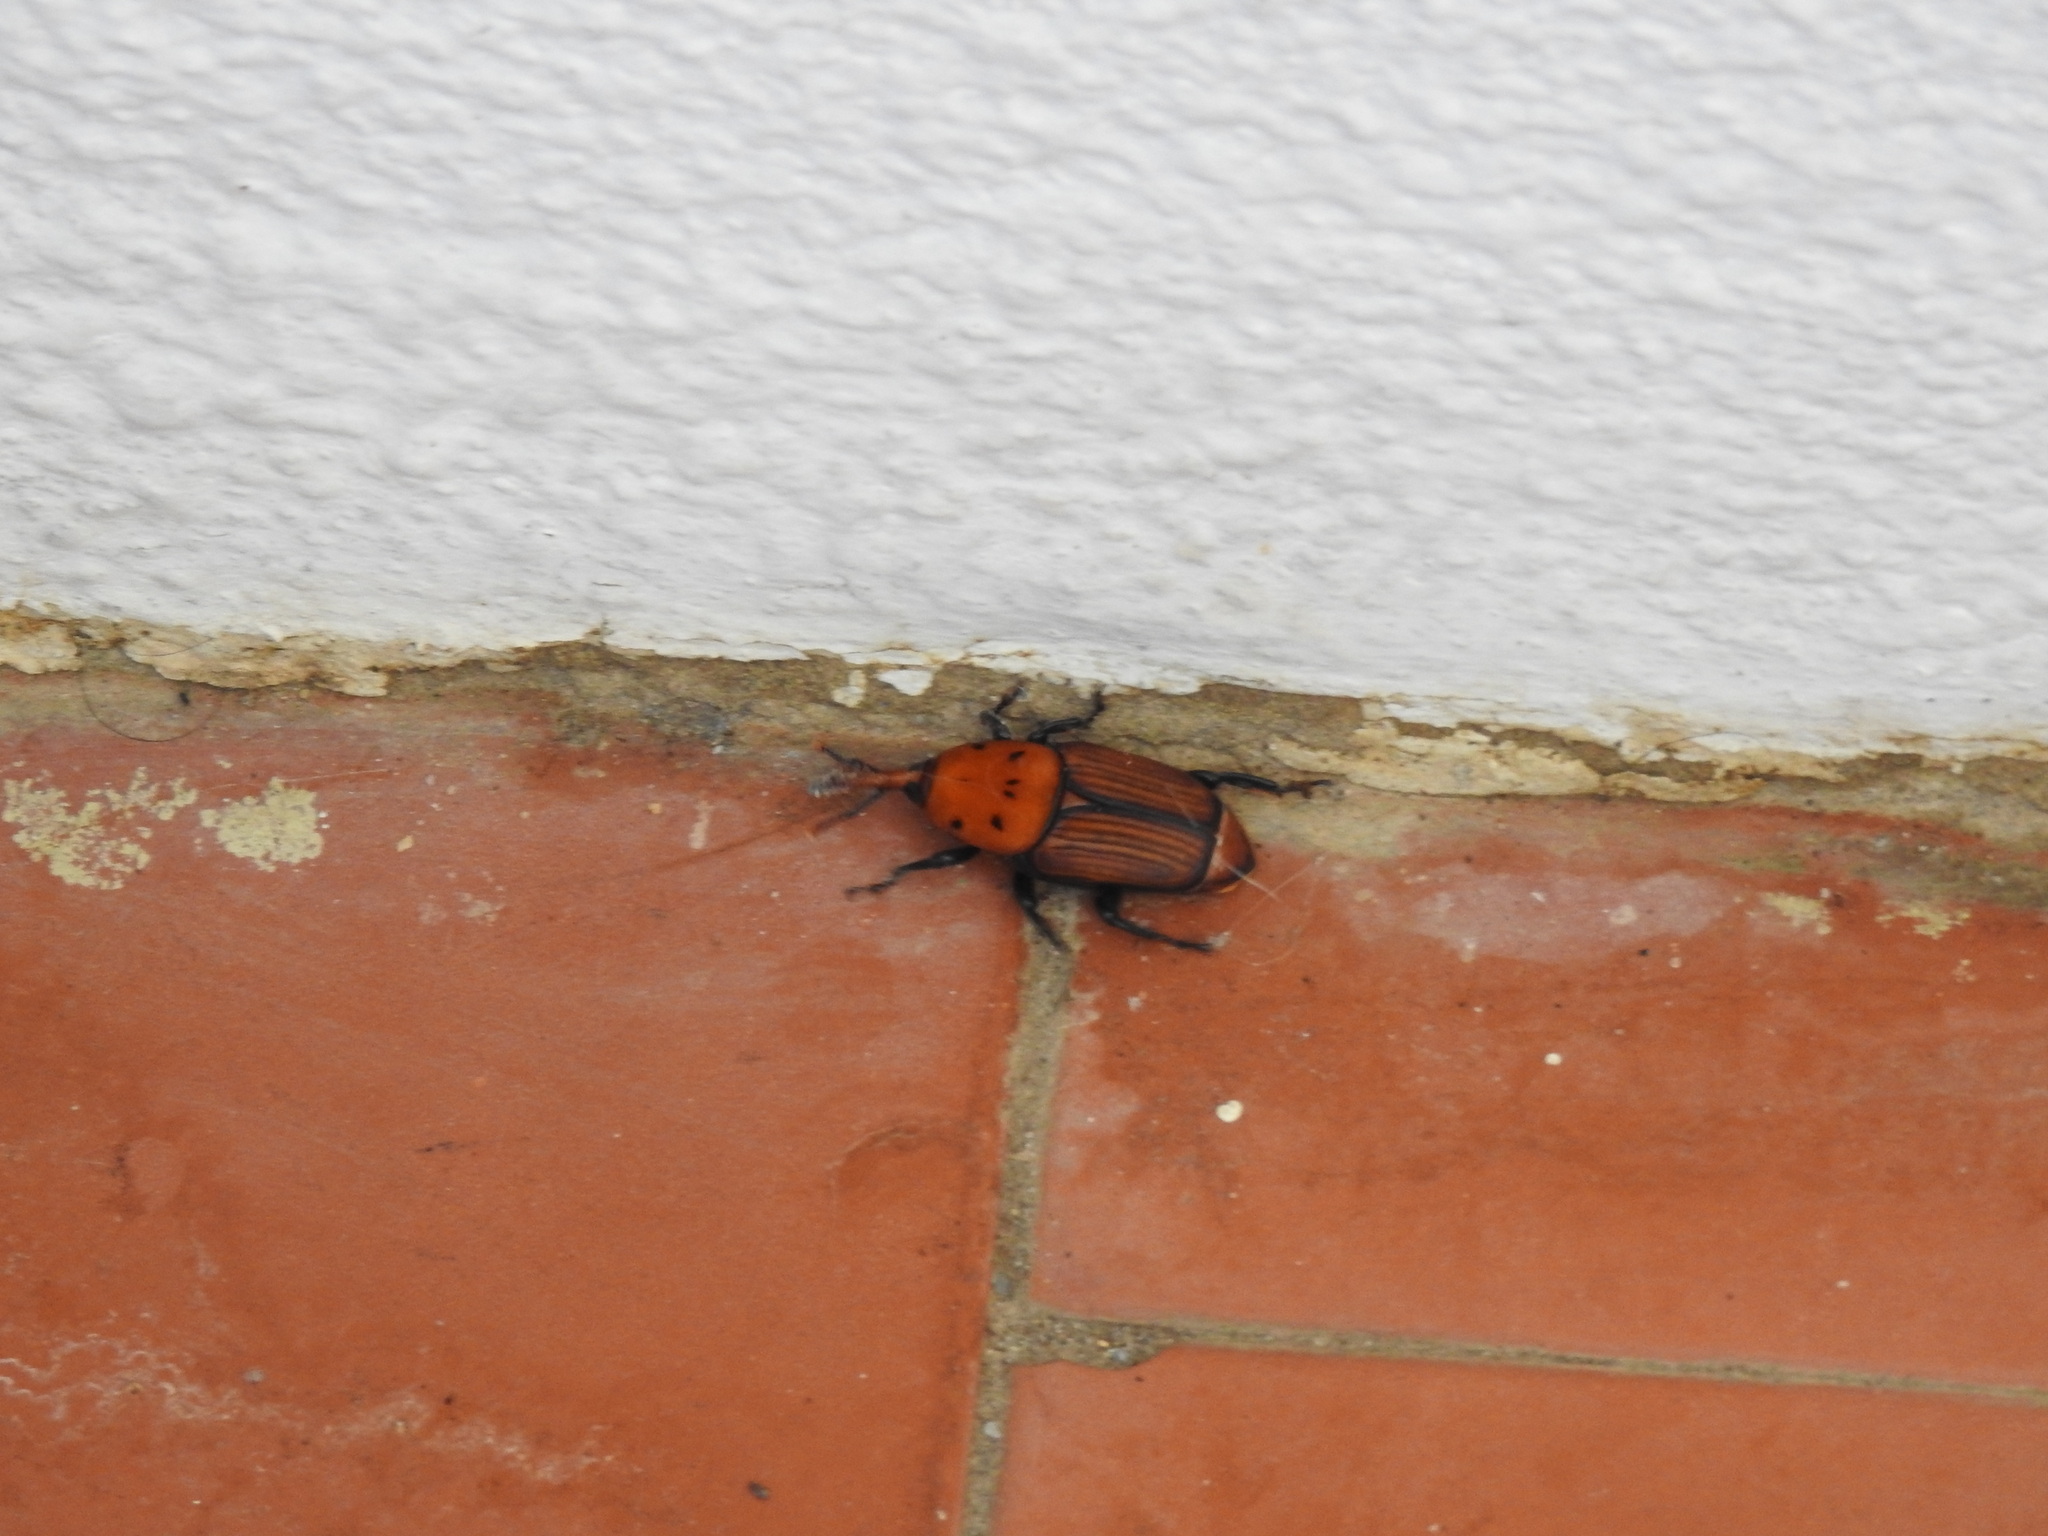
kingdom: Animalia
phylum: Arthropoda
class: Insecta
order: Coleoptera
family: Dryophthoridae
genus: Rhynchophorus
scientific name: Rhynchophorus ferrugineus
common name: Red palm weevil
